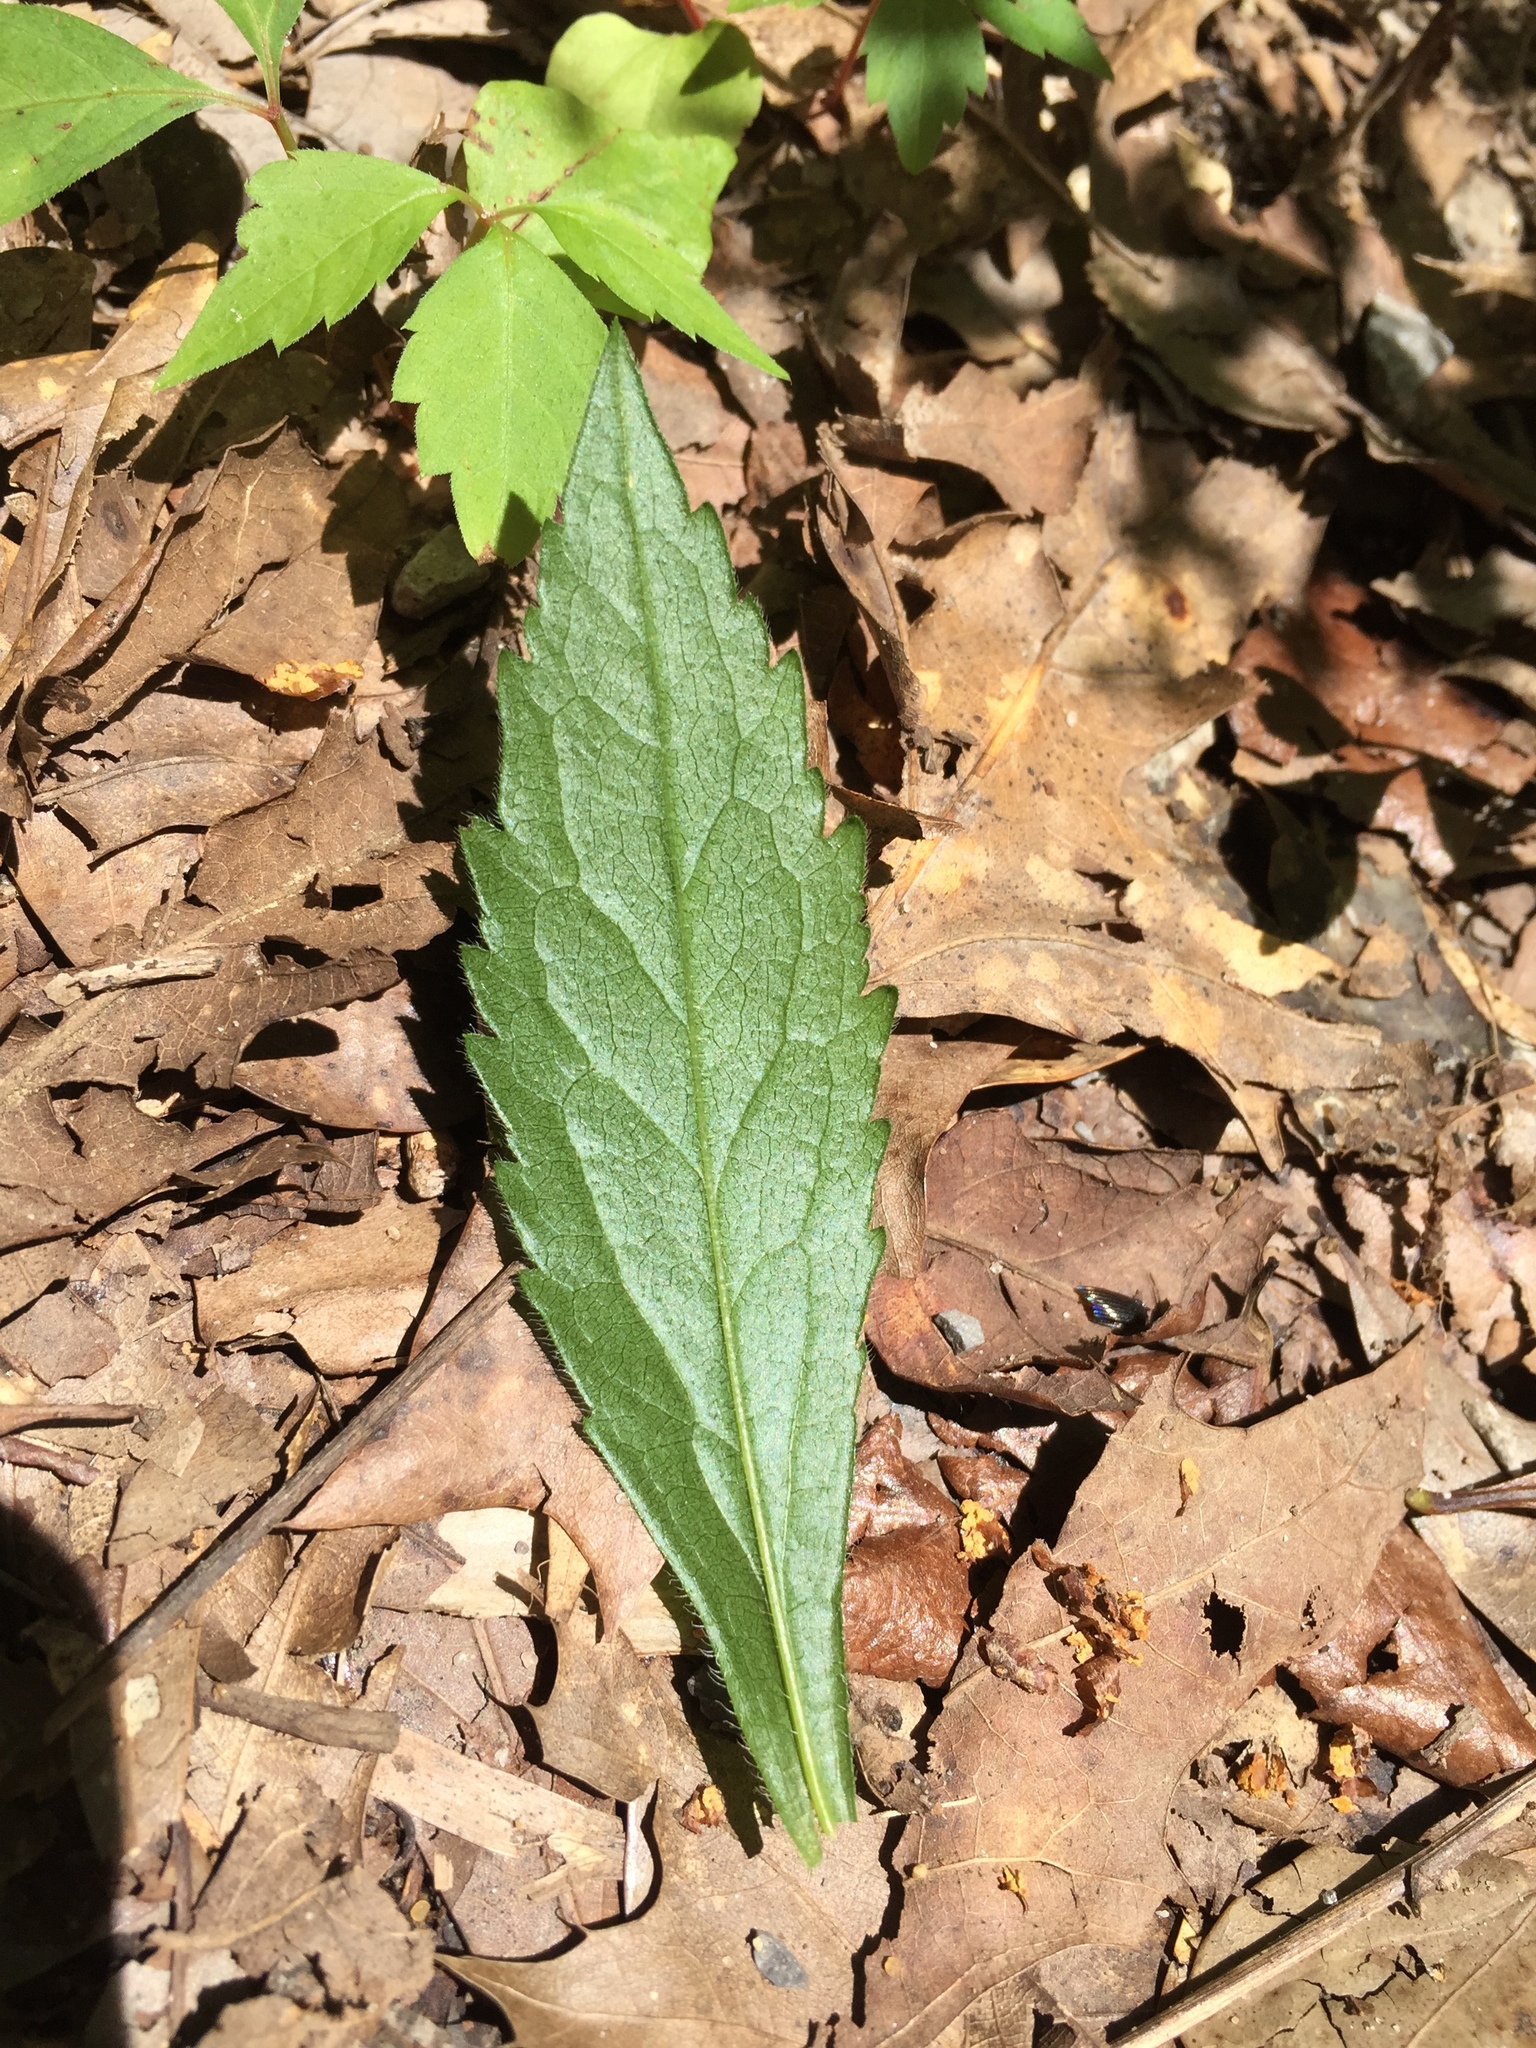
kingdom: Plantae
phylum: Tracheophyta
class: Magnoliopsida
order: Asterales
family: Asteraceae
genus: Solidago
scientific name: Solidago ulmifolia
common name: Elm-leaf goldenrod
